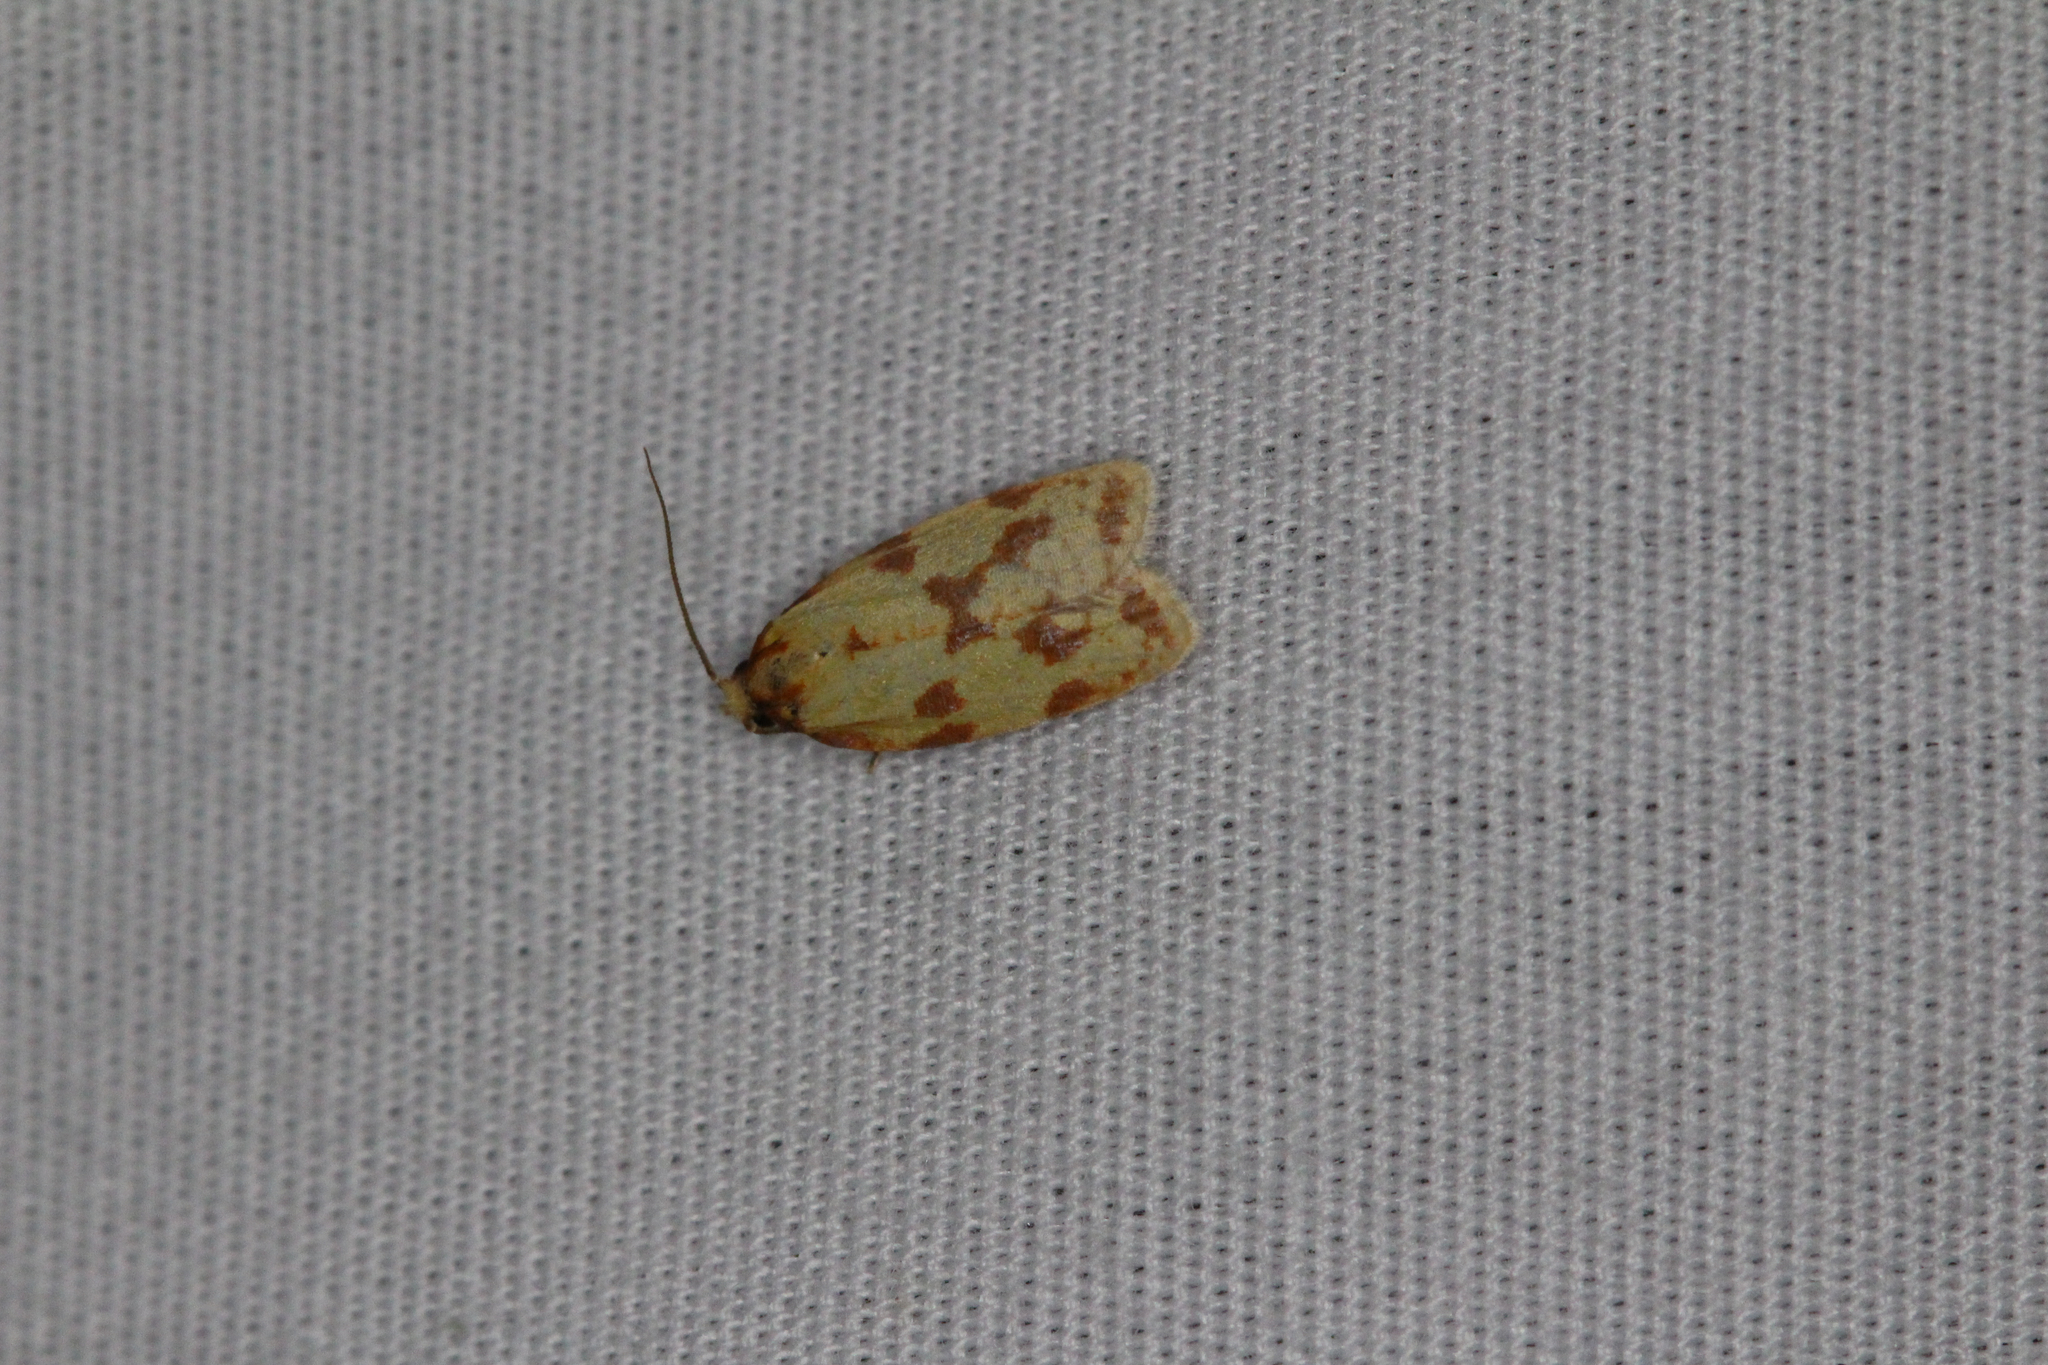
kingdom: Animalia
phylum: Arthropoda
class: Insecta
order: Lepidoptera
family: Tortricidae
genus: Sparganothis
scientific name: Sparganothis sulfureana
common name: Sparganothis fruitworm moth
